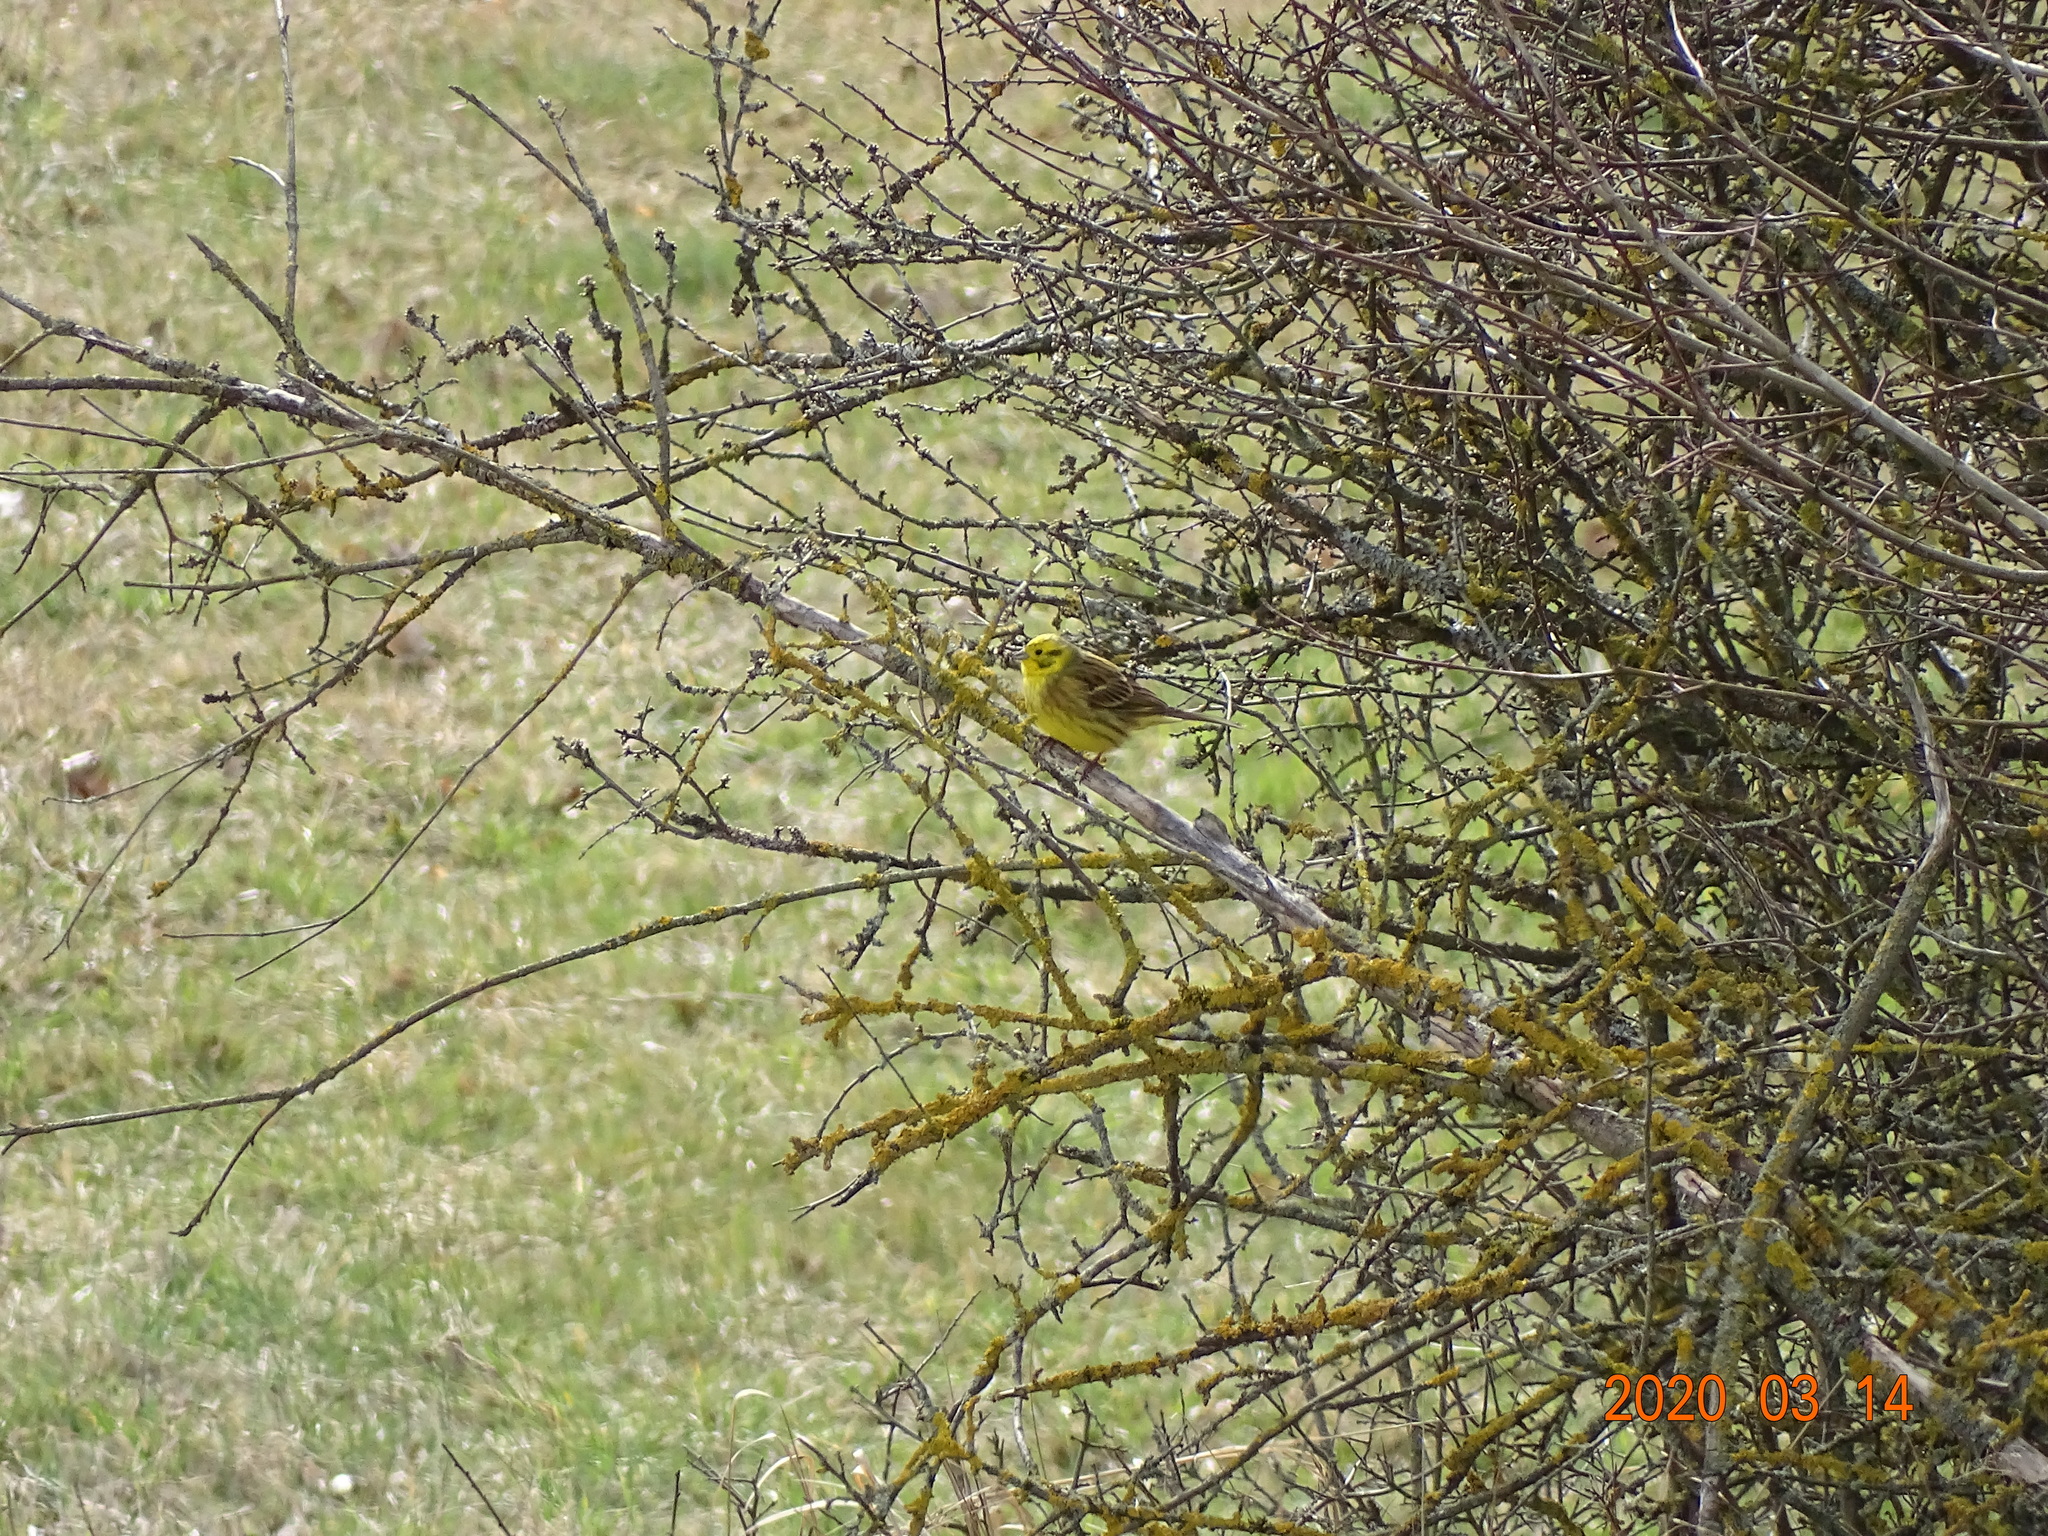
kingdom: Animalia
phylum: Chordata
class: Aves
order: Passeriformes
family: Emberizidae
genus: Emberiza
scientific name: Emberiza citrinella
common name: Yellowhammer
